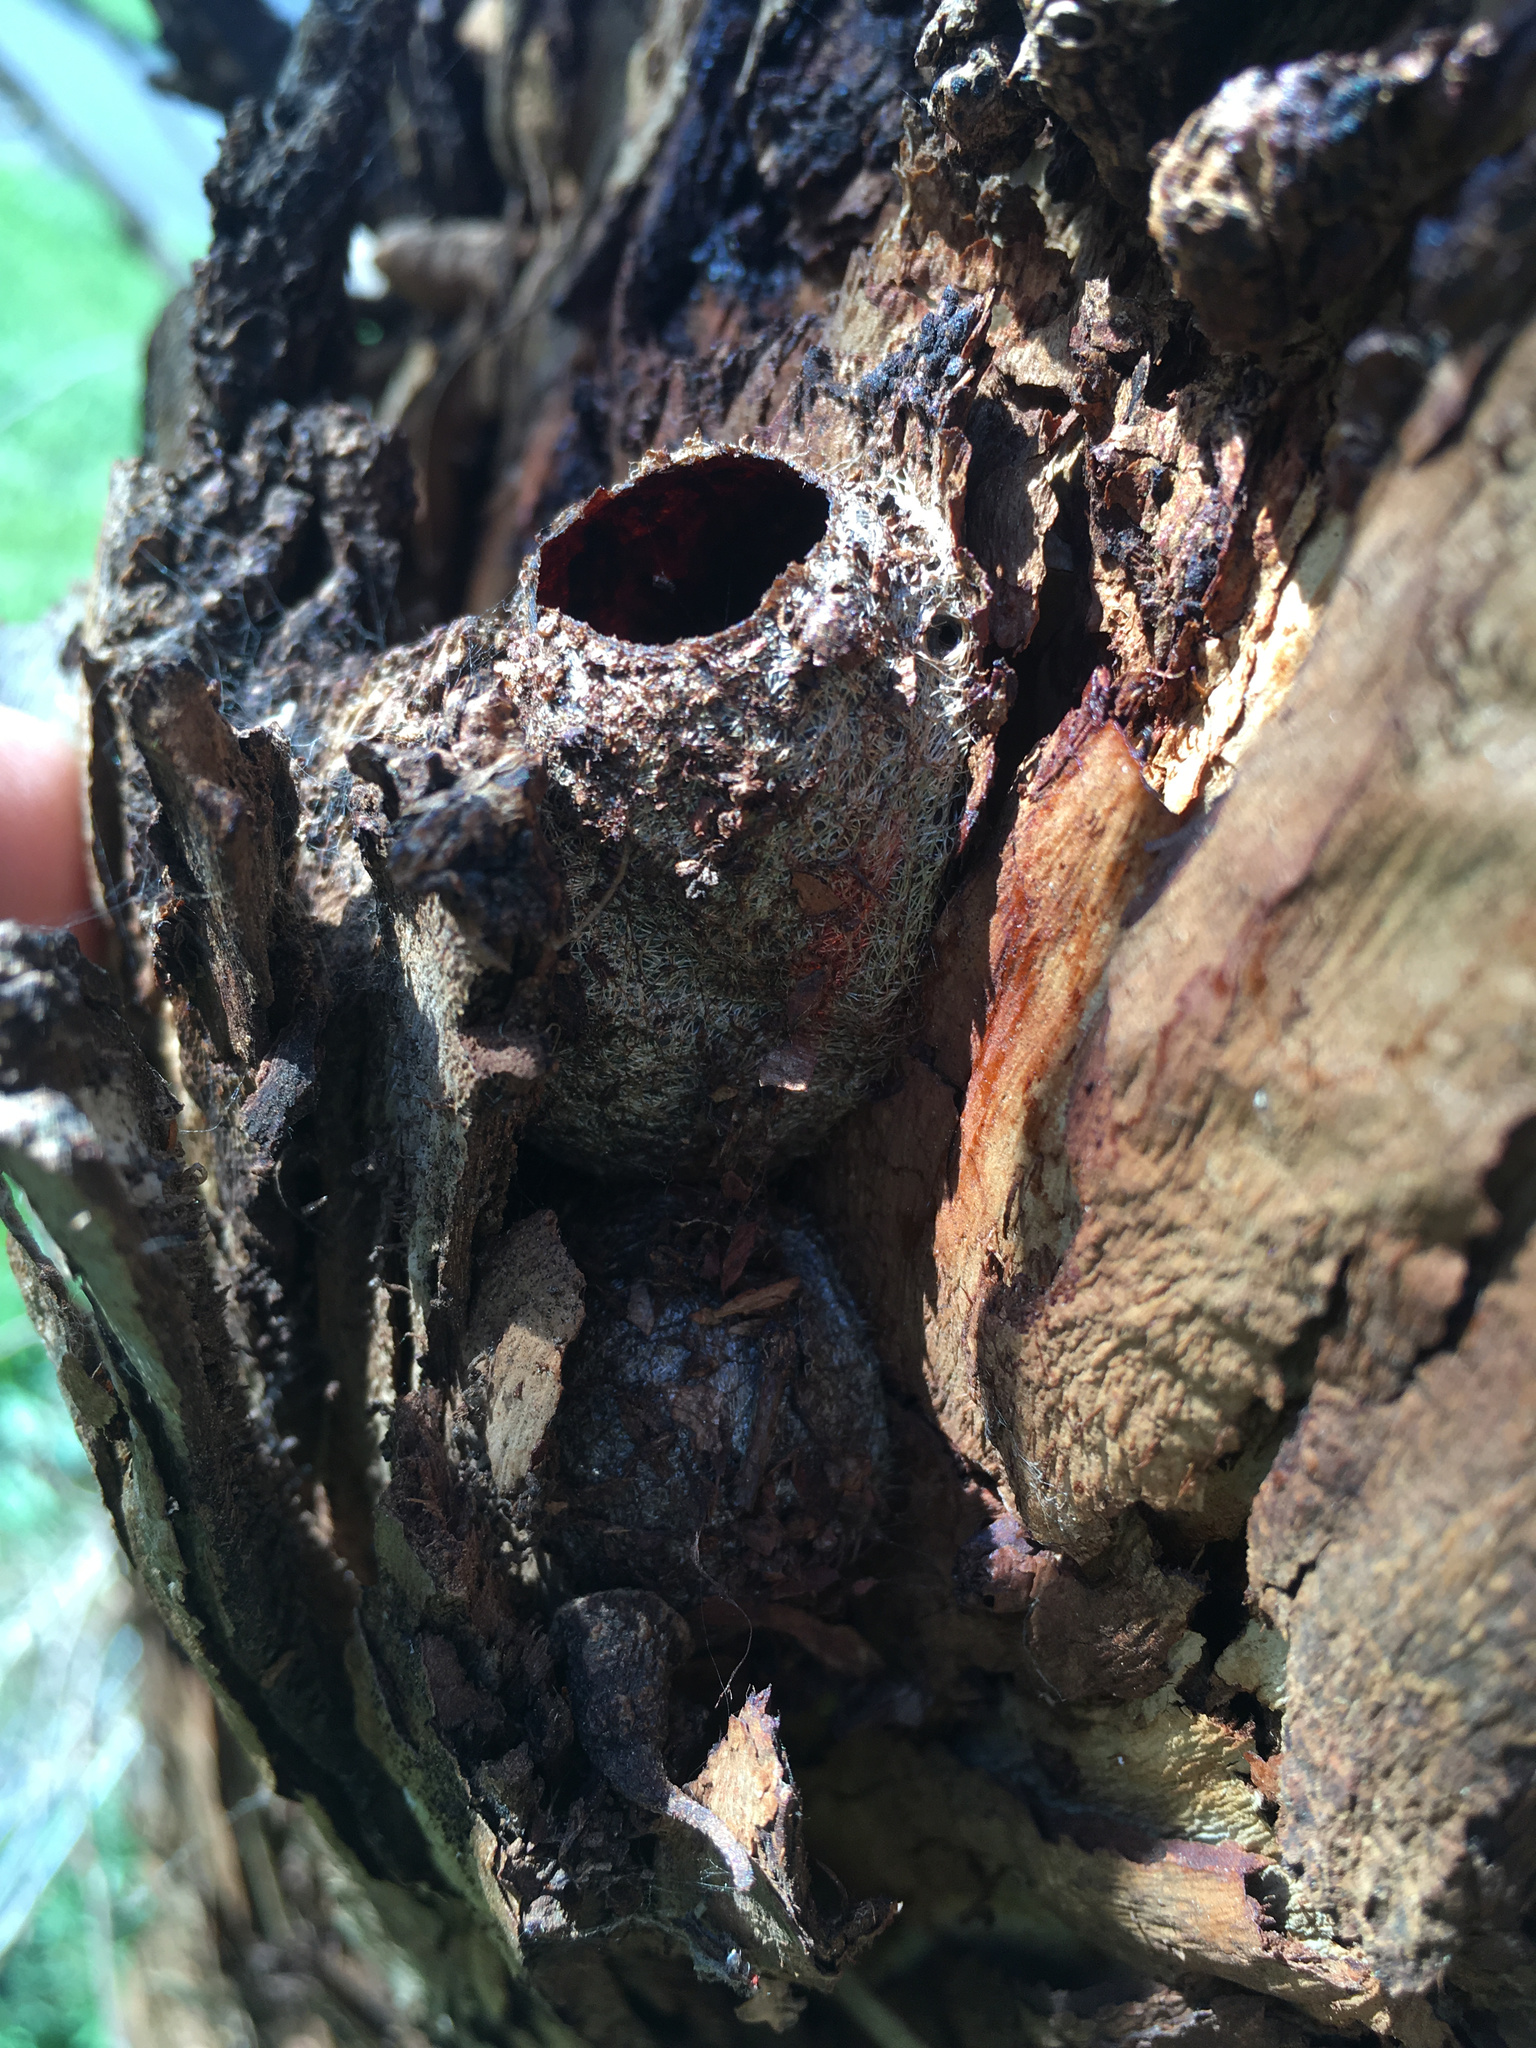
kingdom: Animalia
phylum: Arthropoda
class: Insecta
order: Lepidoptera
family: Saturniidae
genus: Opodiphthera
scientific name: Opodiphthera
